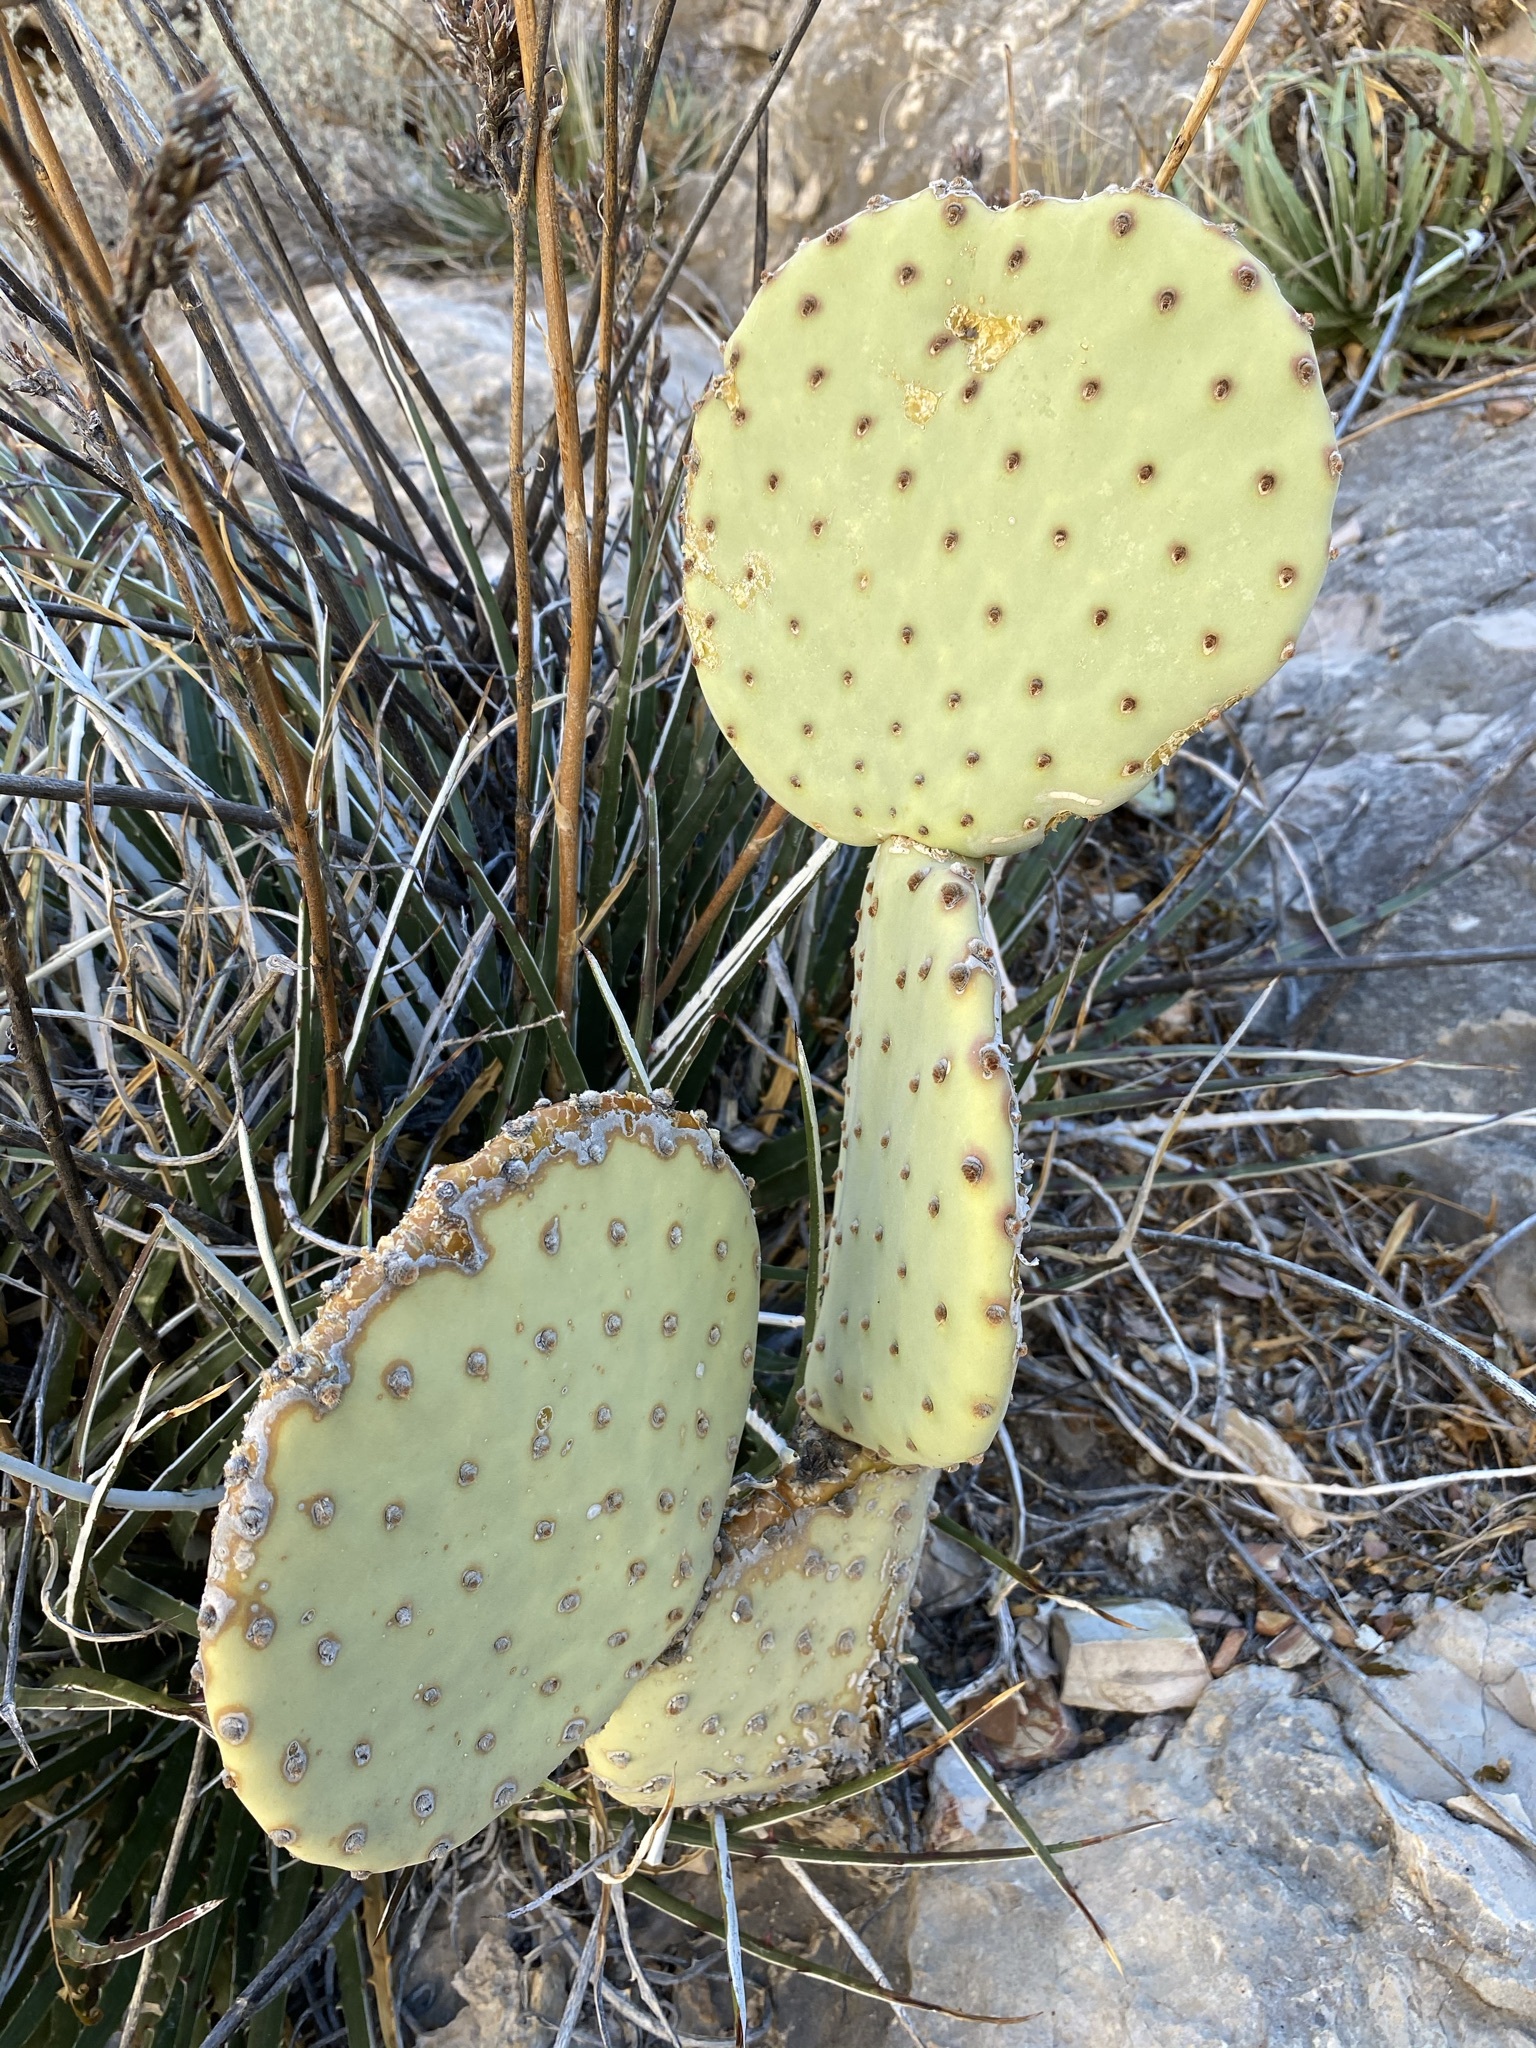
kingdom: Plantae
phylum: Tracheophyta
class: Magnoliopsida
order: Caryophyllales
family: Cactaceae
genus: Opuntia
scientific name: Opuntia rufida
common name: Blind pricklypear
